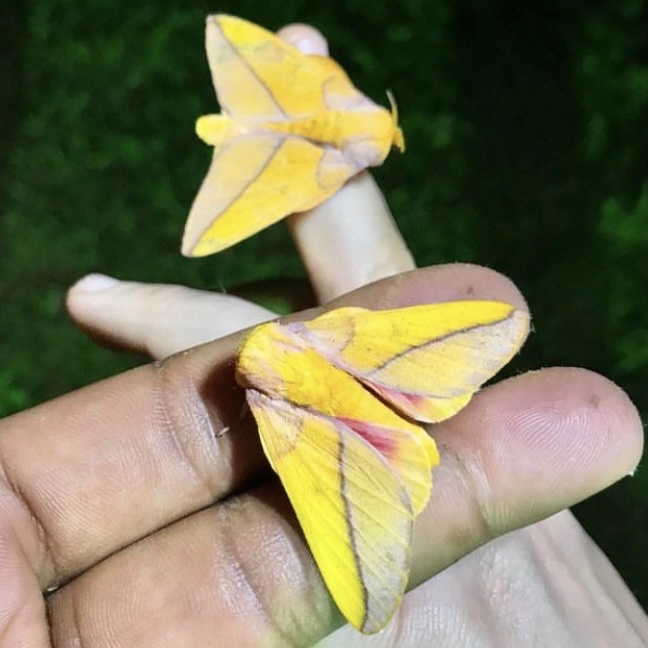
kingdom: Animalia
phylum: Arthropoda
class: Insecta
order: Lepidoptera
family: Saturniidae
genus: Syssphinx
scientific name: Syssphinx bisecta
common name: Bisected honey locust moth
